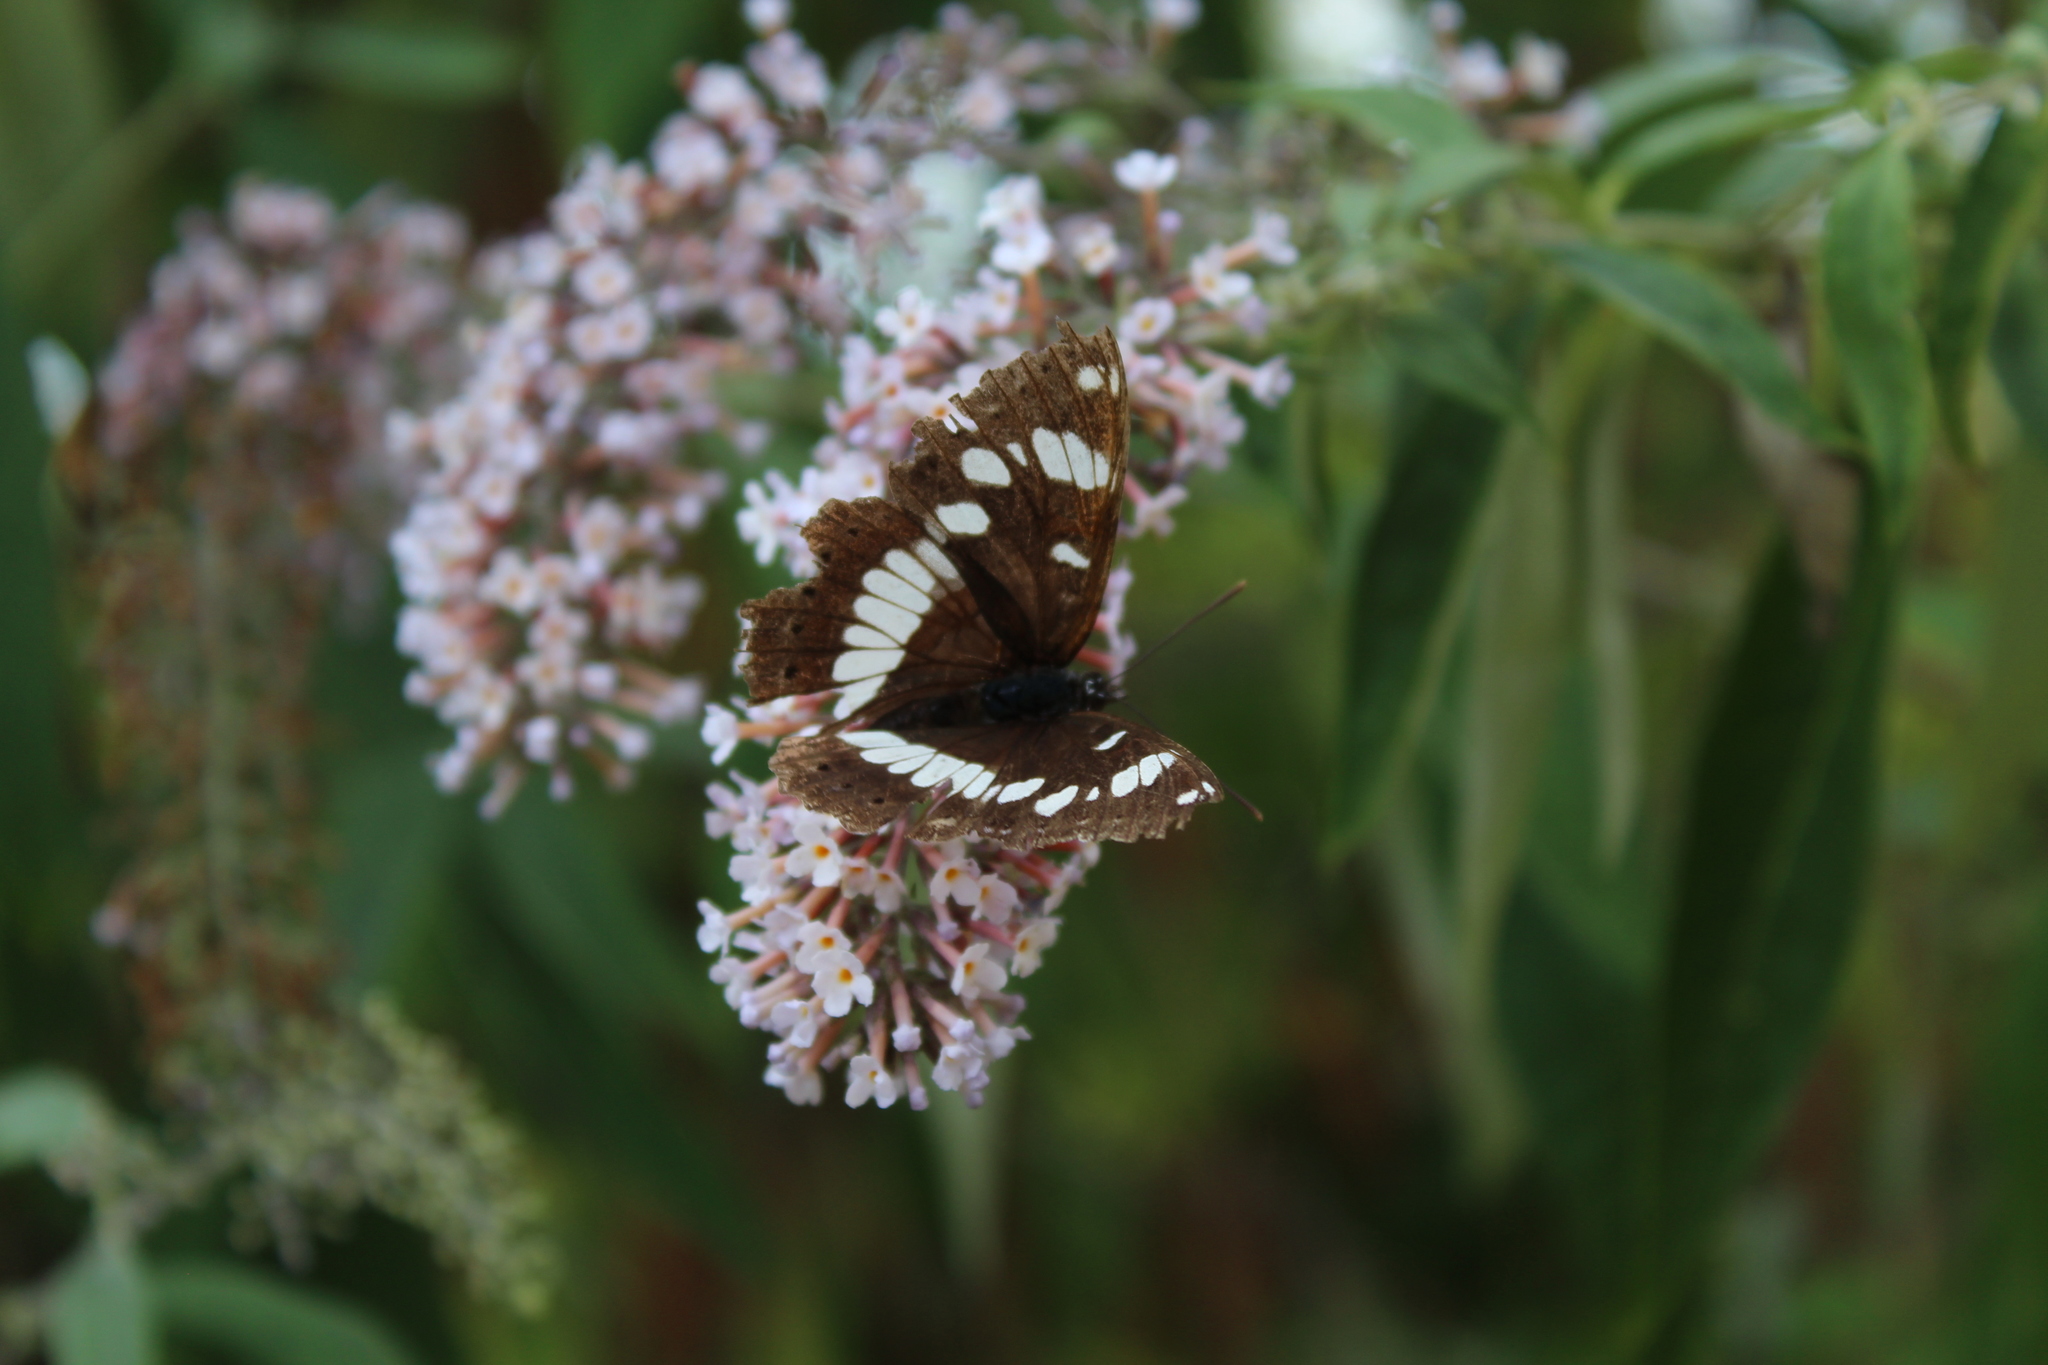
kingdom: Animalia
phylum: Arthropoda
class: Insecta
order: Lepidoptera
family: Nymphalidae
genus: Limenitis
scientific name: Limenitis reducta
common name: Southern white admiral
